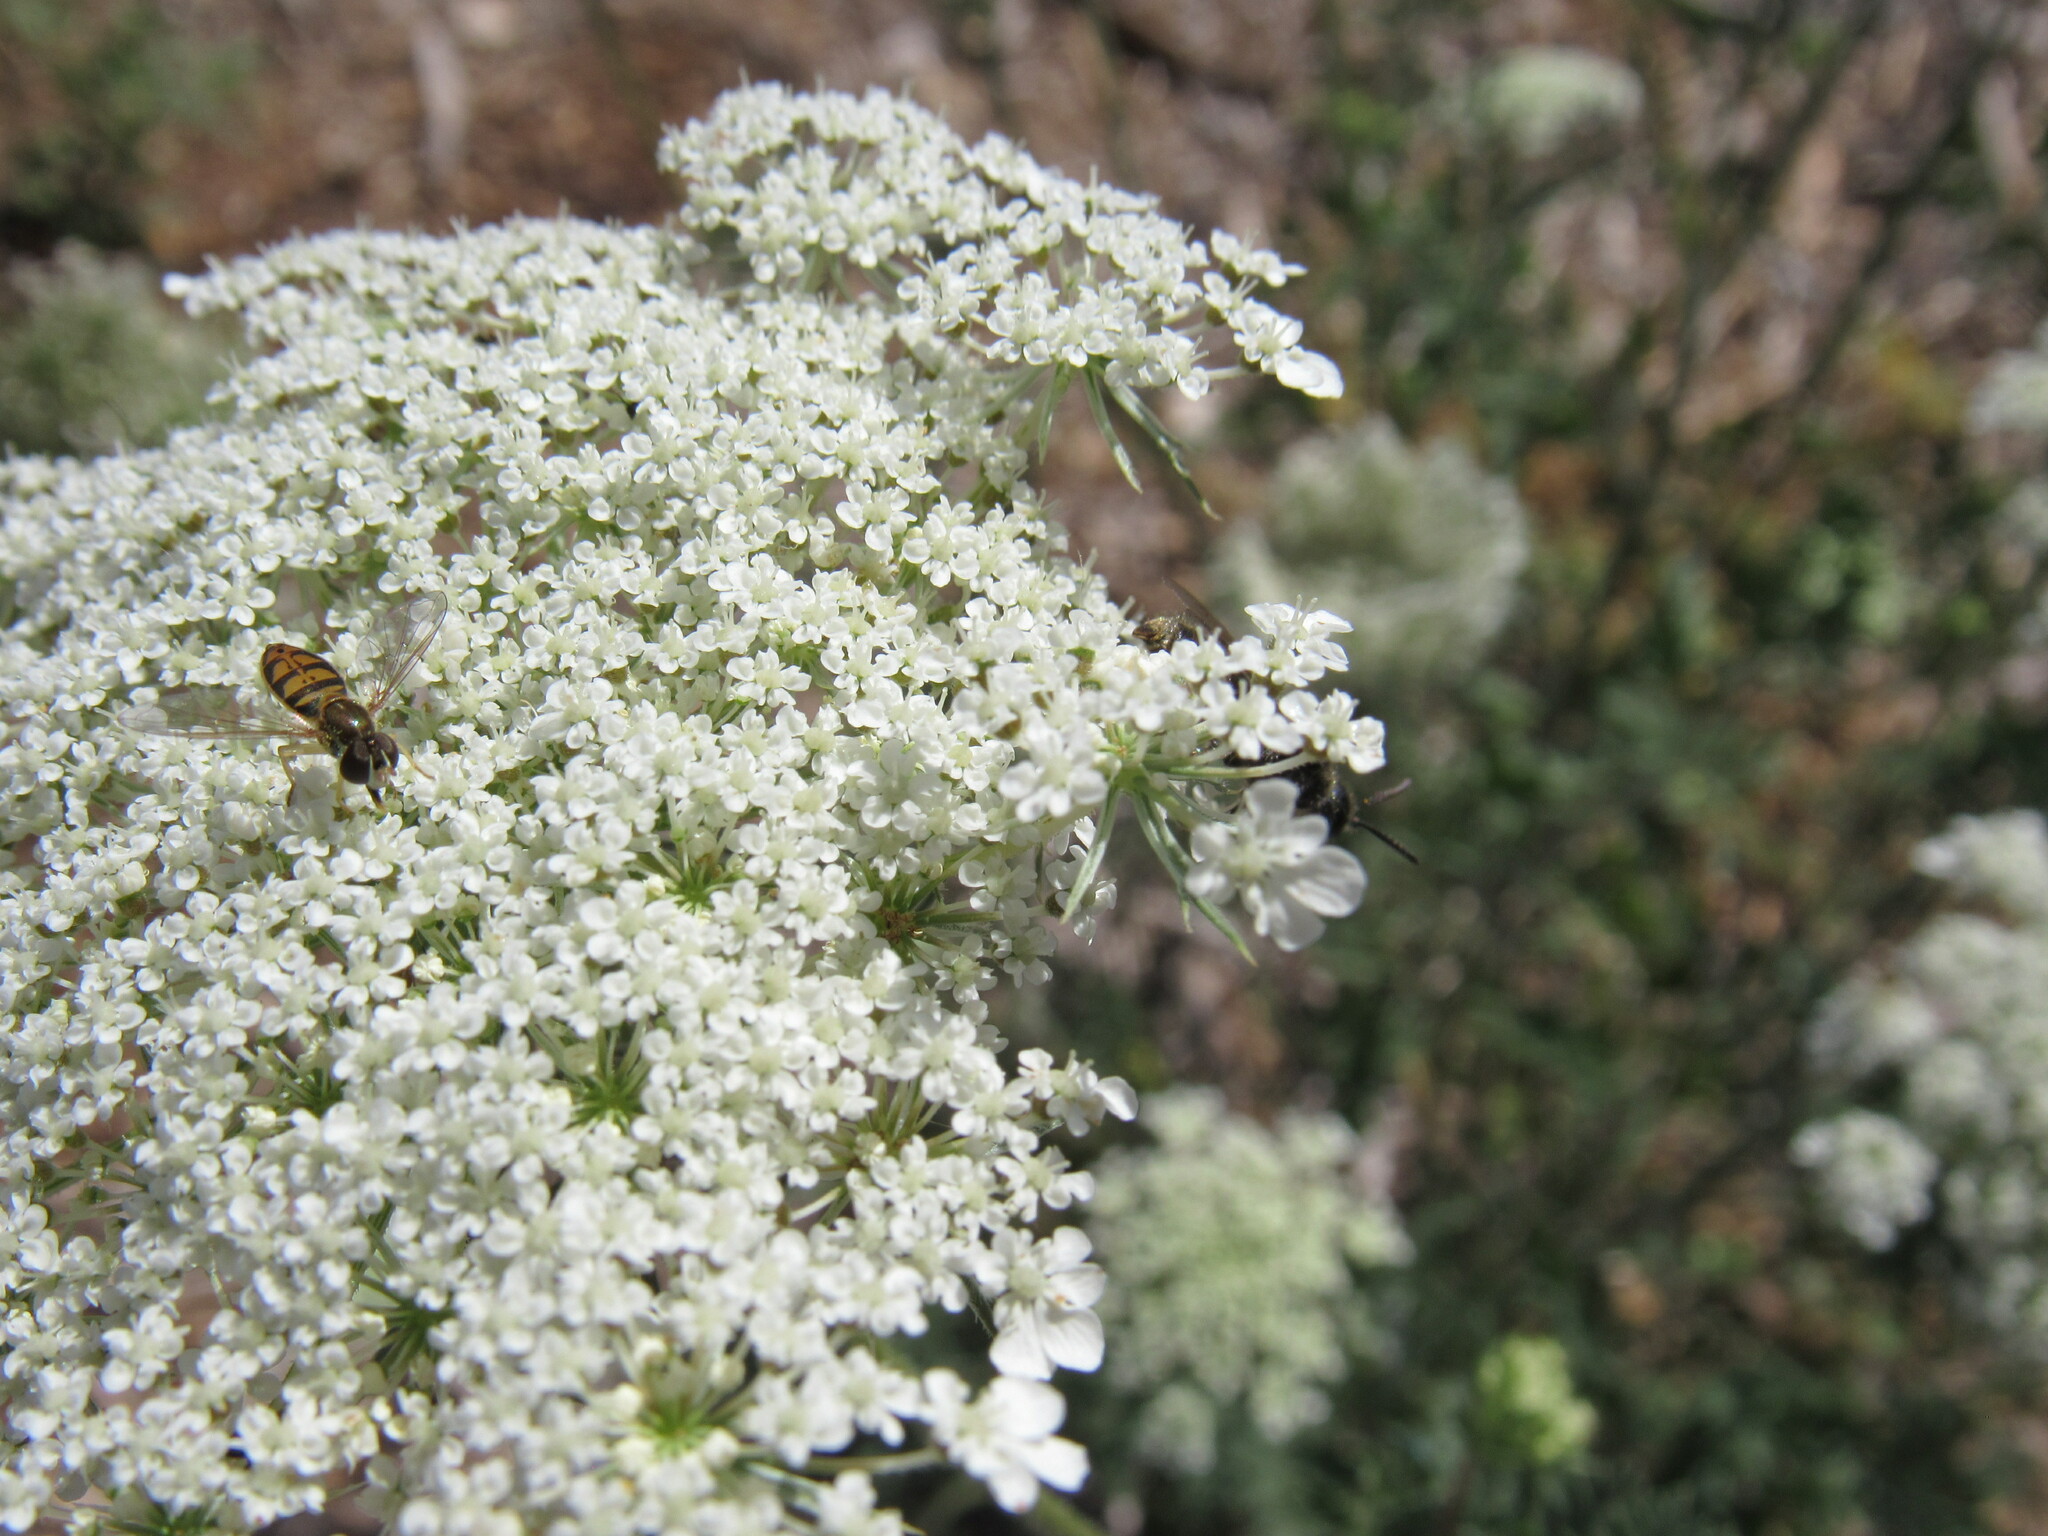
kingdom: Animalia
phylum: Arthropoda
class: Insecta
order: Diptera
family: Syrphidae
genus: Toxomerus
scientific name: Toxomerus marginatus
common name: Syrphid fly
